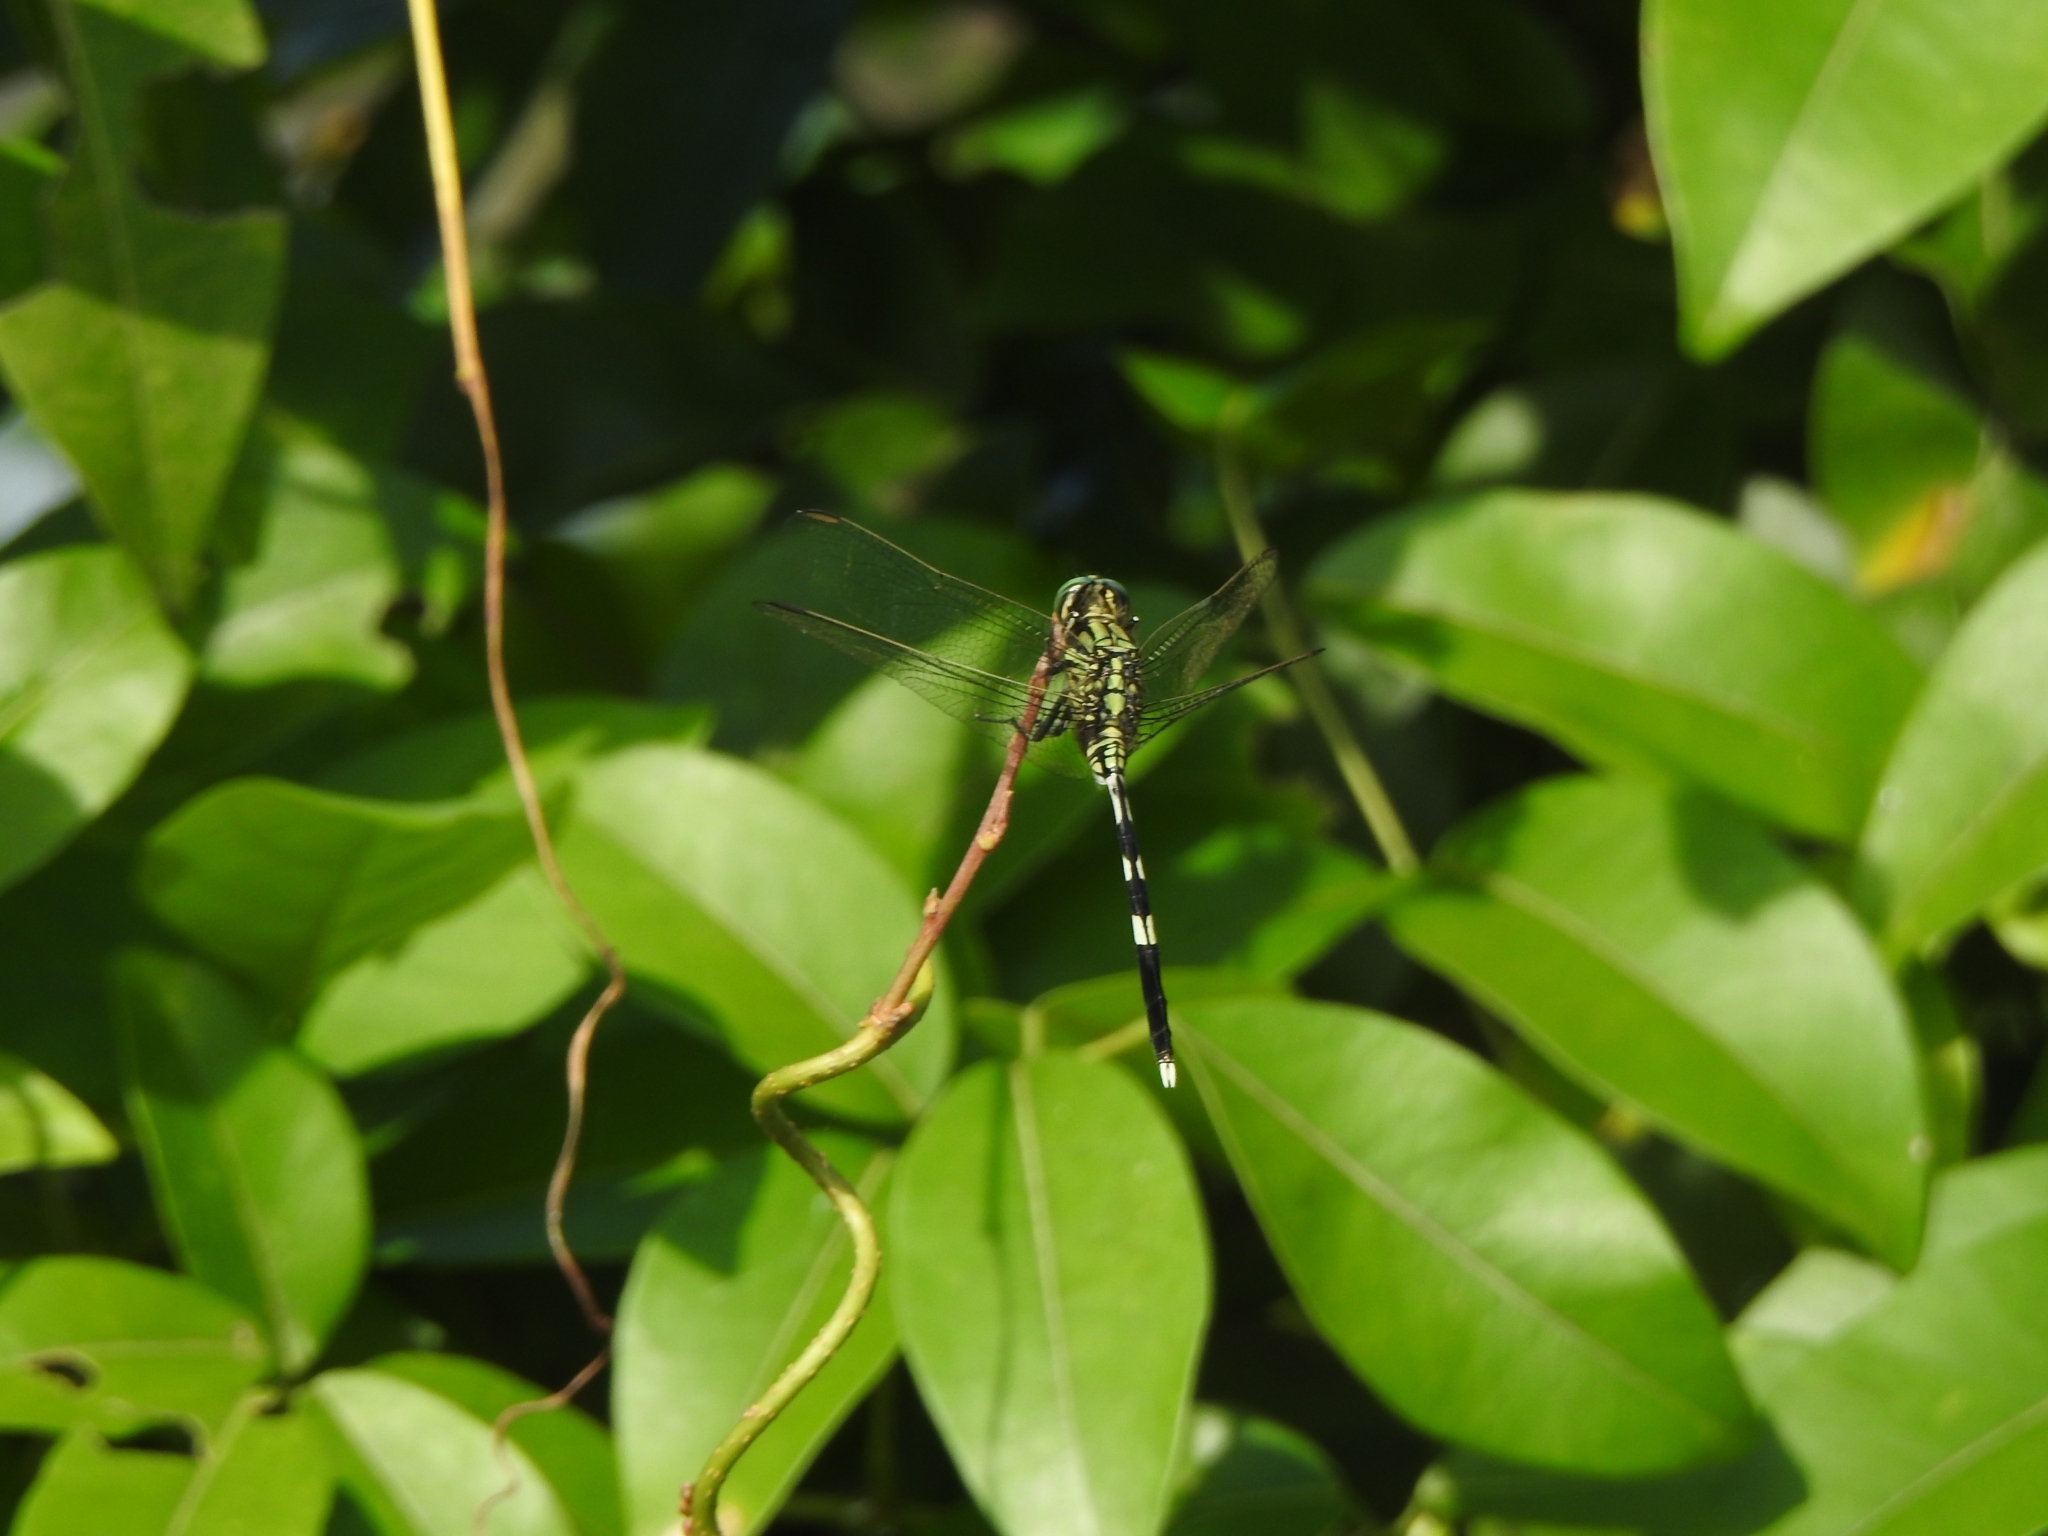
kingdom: Animalia
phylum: Arthropoda
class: Insecta
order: Odonata
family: Libellulidae
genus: Orthetrum
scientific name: Orthetrum sabina
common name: Slender skimmer
